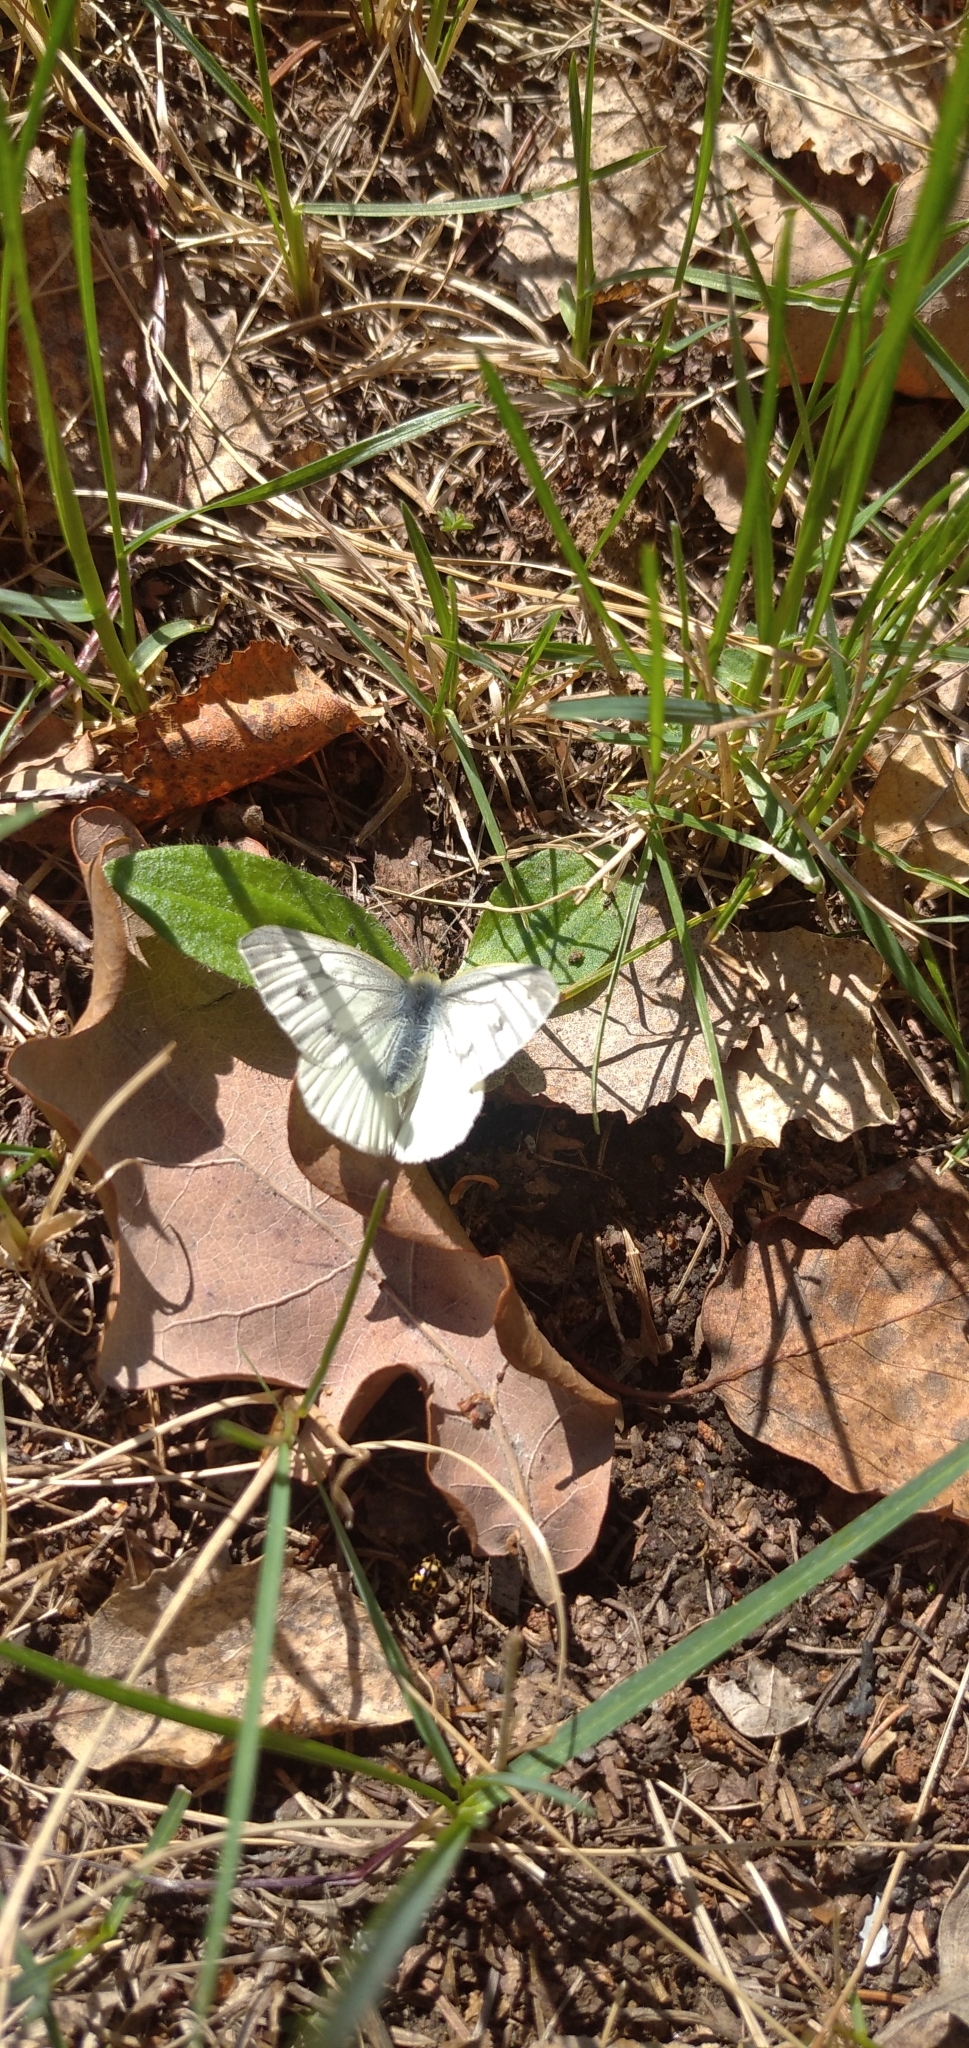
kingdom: Animalia
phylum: Arthropoda
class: Insecta
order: Lepidoptera
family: Pieridae
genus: Pieris
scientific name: Pieris napi
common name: Green-veined white
